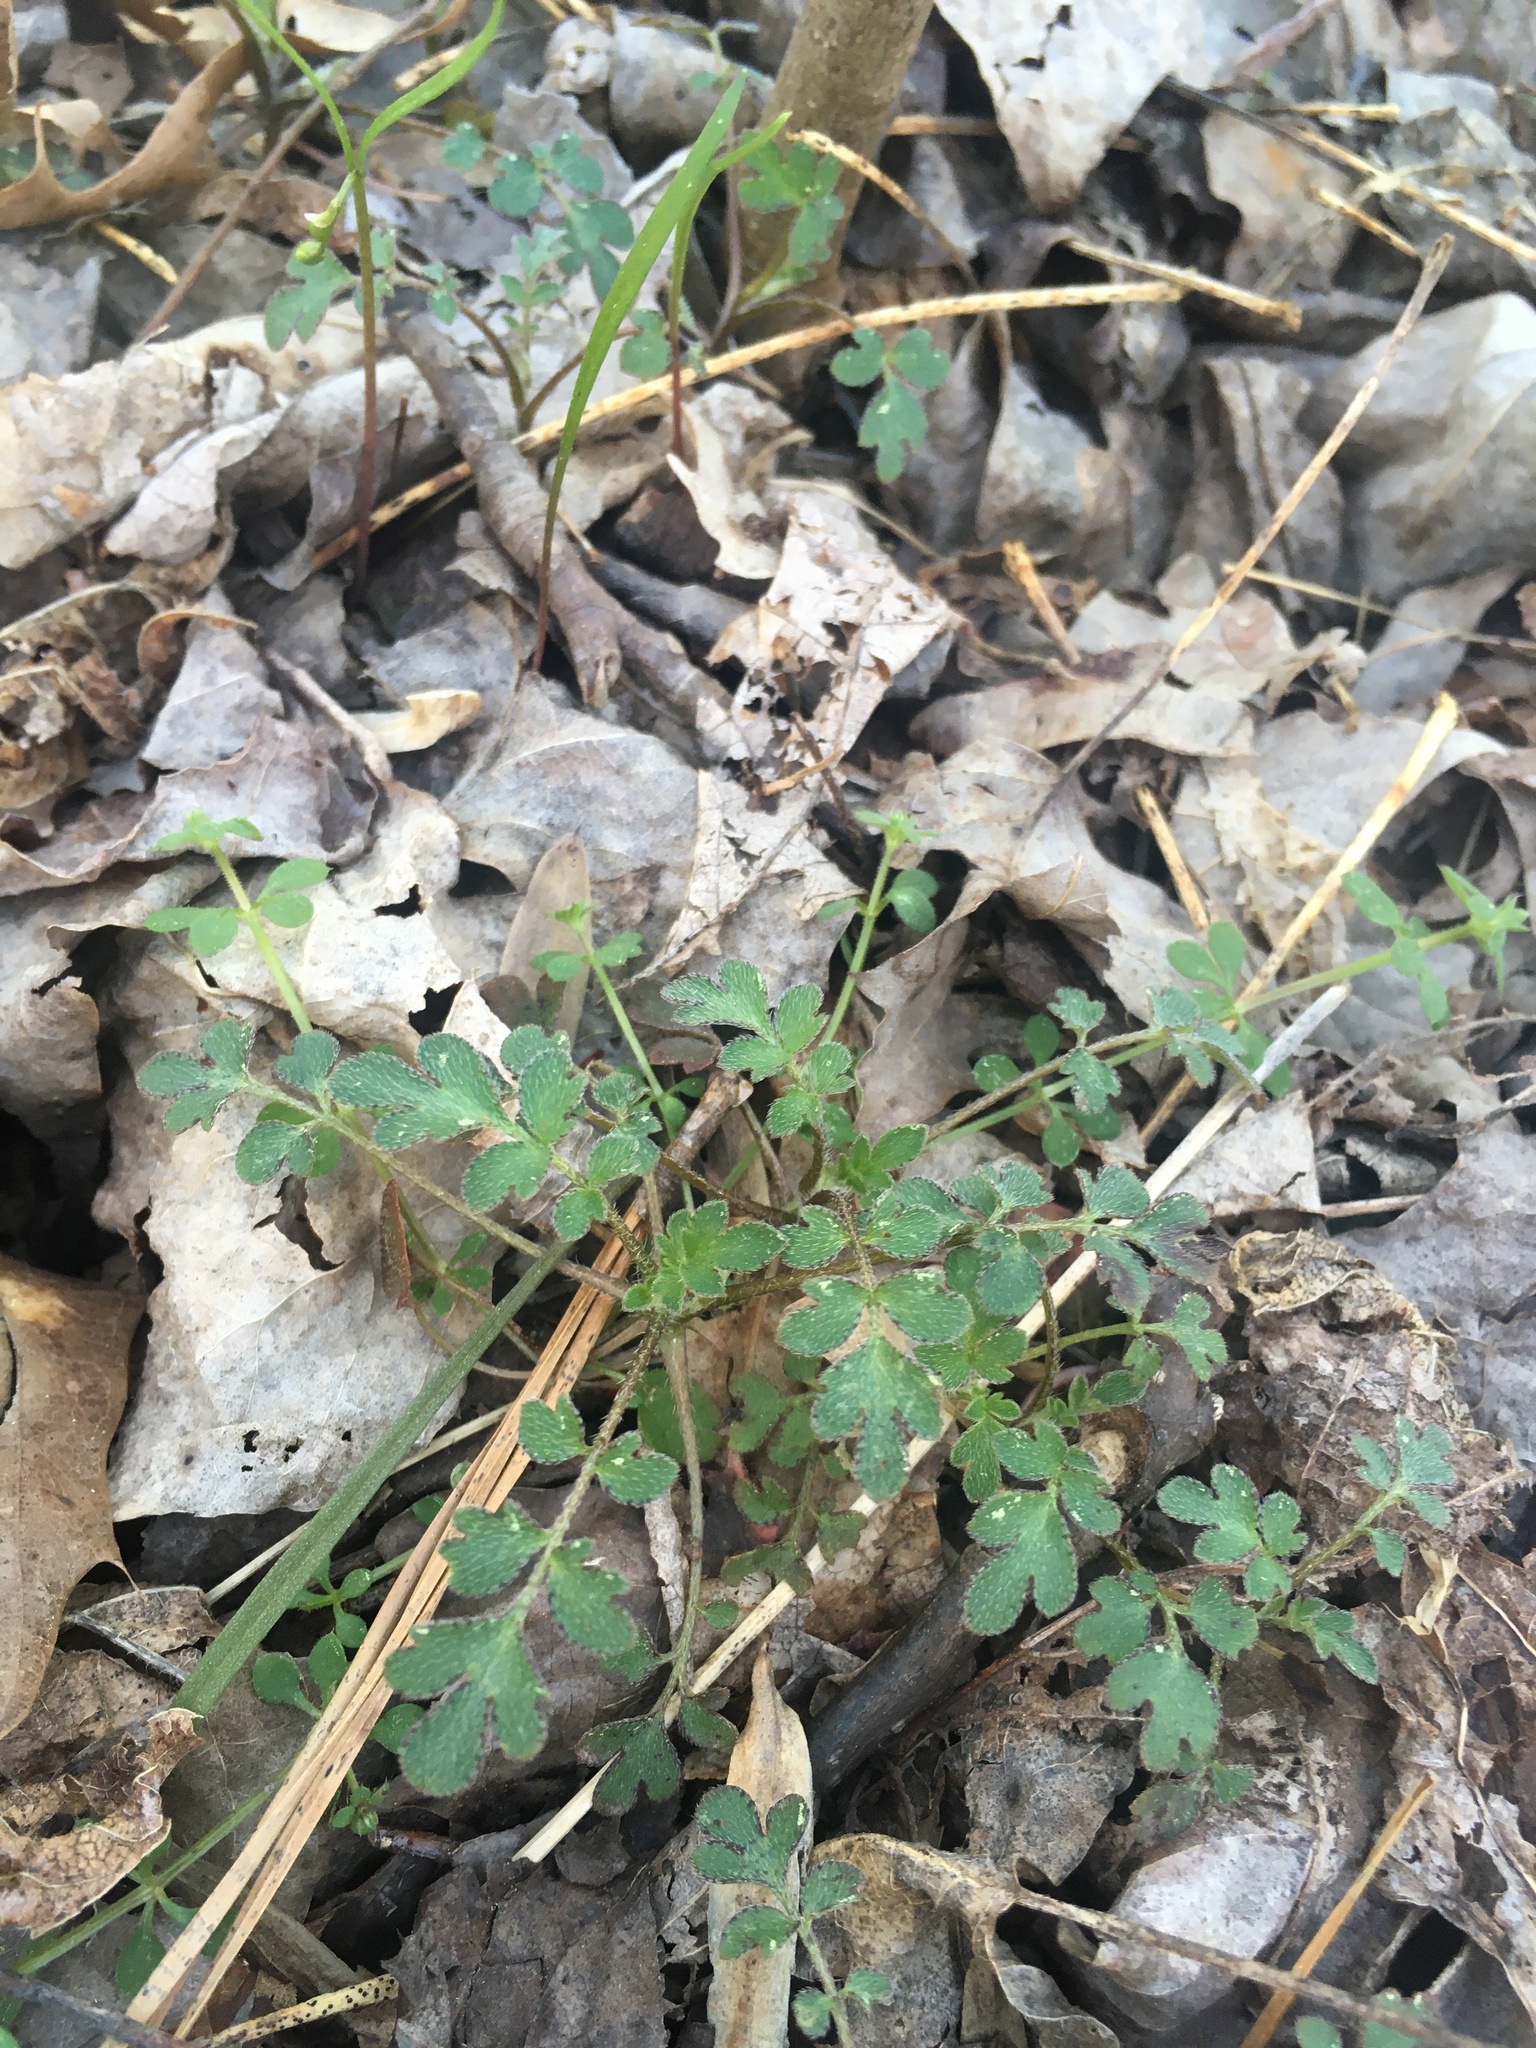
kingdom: Plantae
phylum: Tracheophyta
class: Magnoliopsida
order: Boraginales
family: Hydrophyllaceae
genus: Phacelia
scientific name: Phacelia covillei
